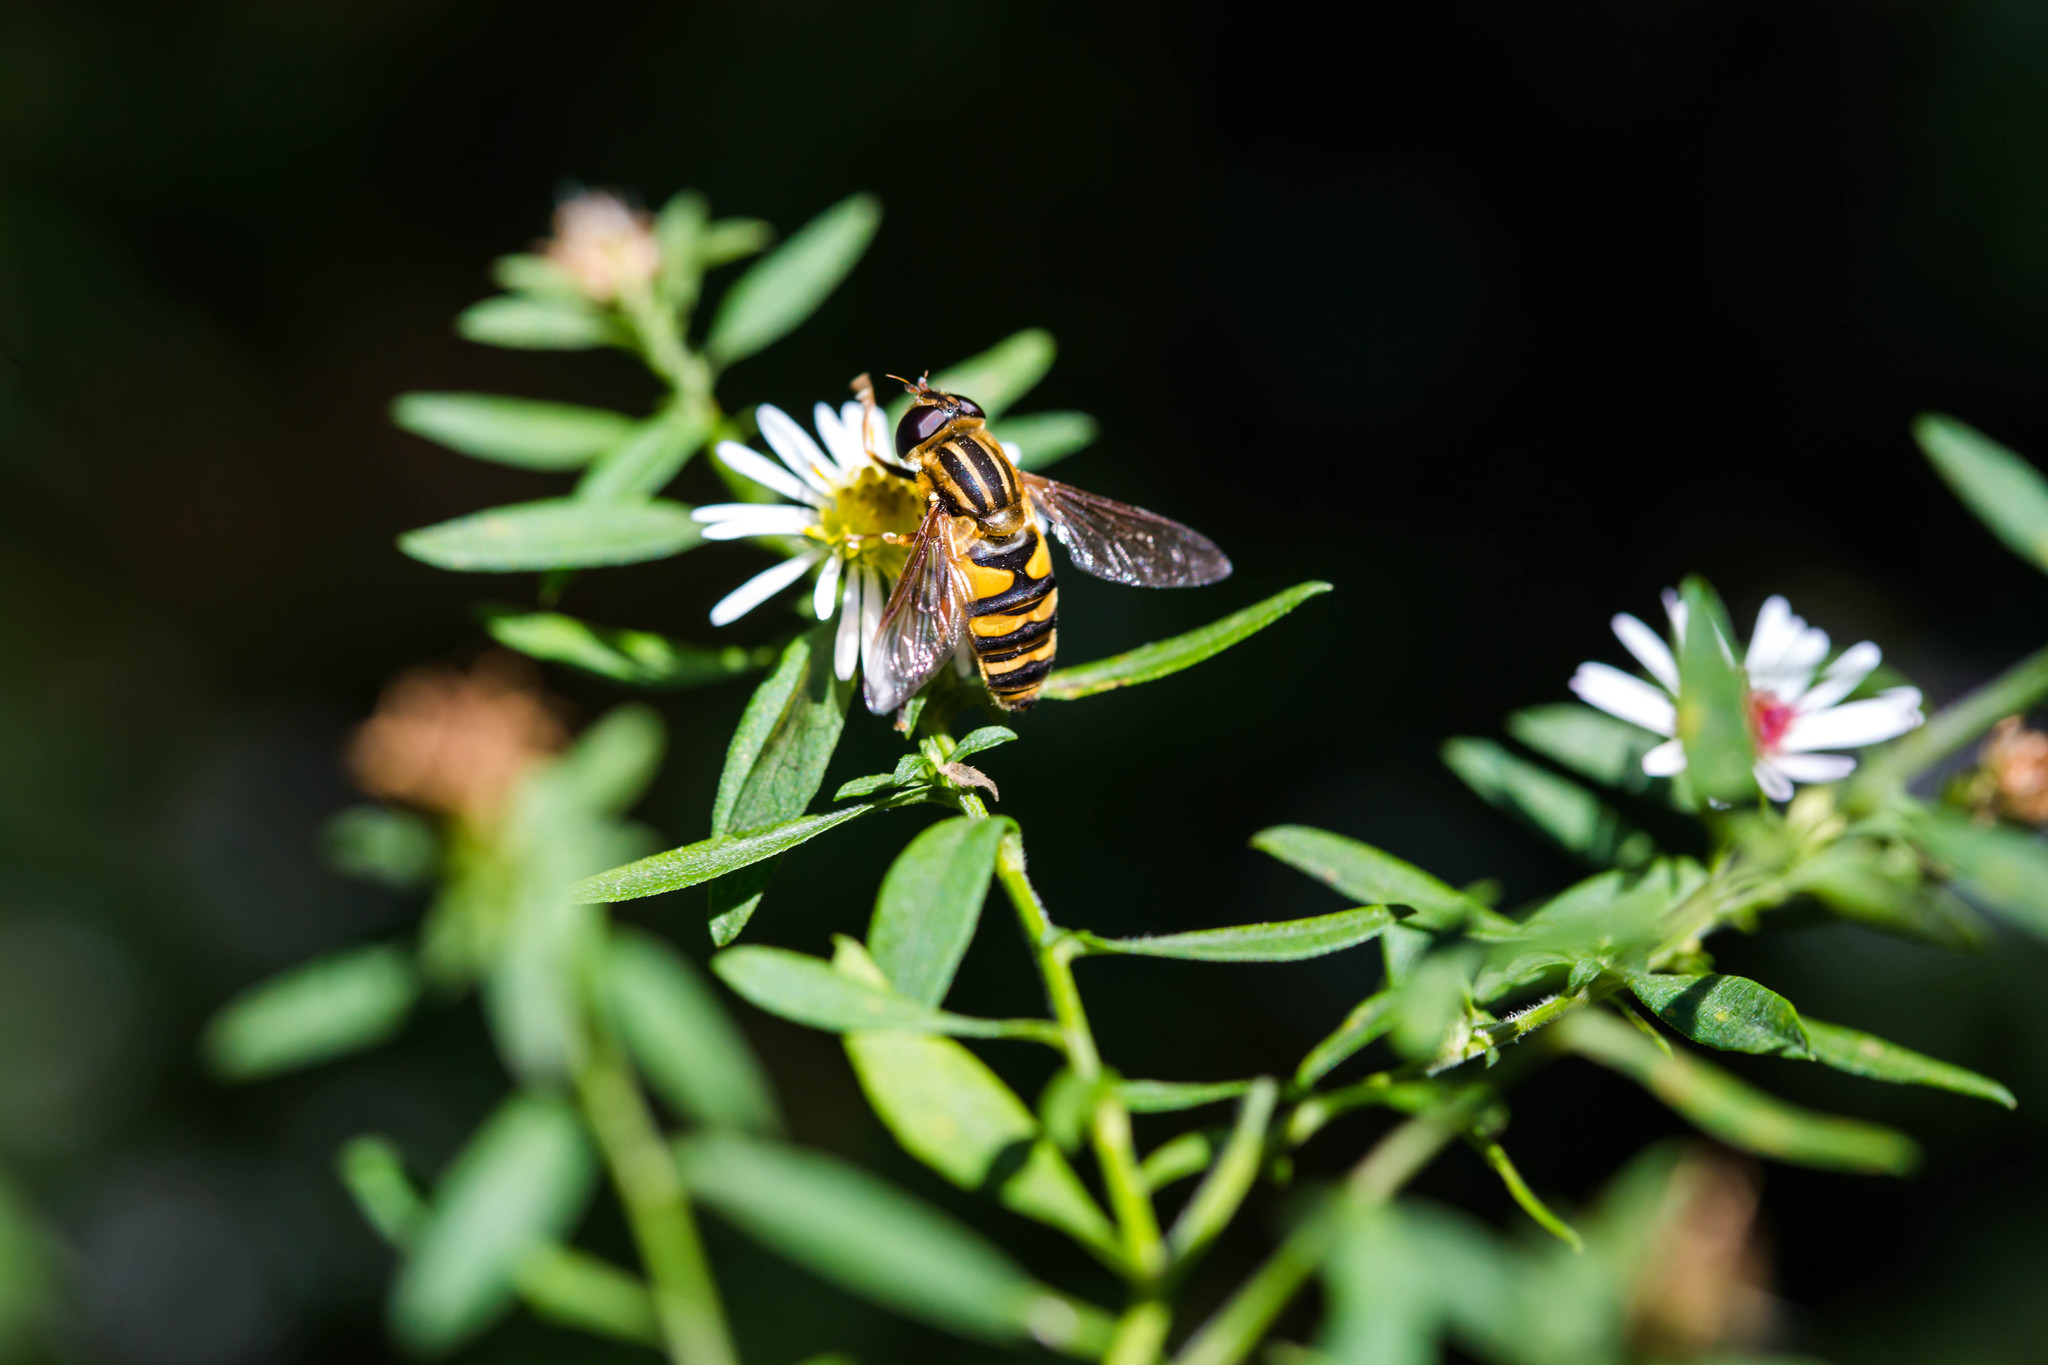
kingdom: Animalia
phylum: Arthropoda
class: Insecta
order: Diptera
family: Syrphidae
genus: Helophilus
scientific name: Helophilus fasciatus
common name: Narrow-headed marsh fly
